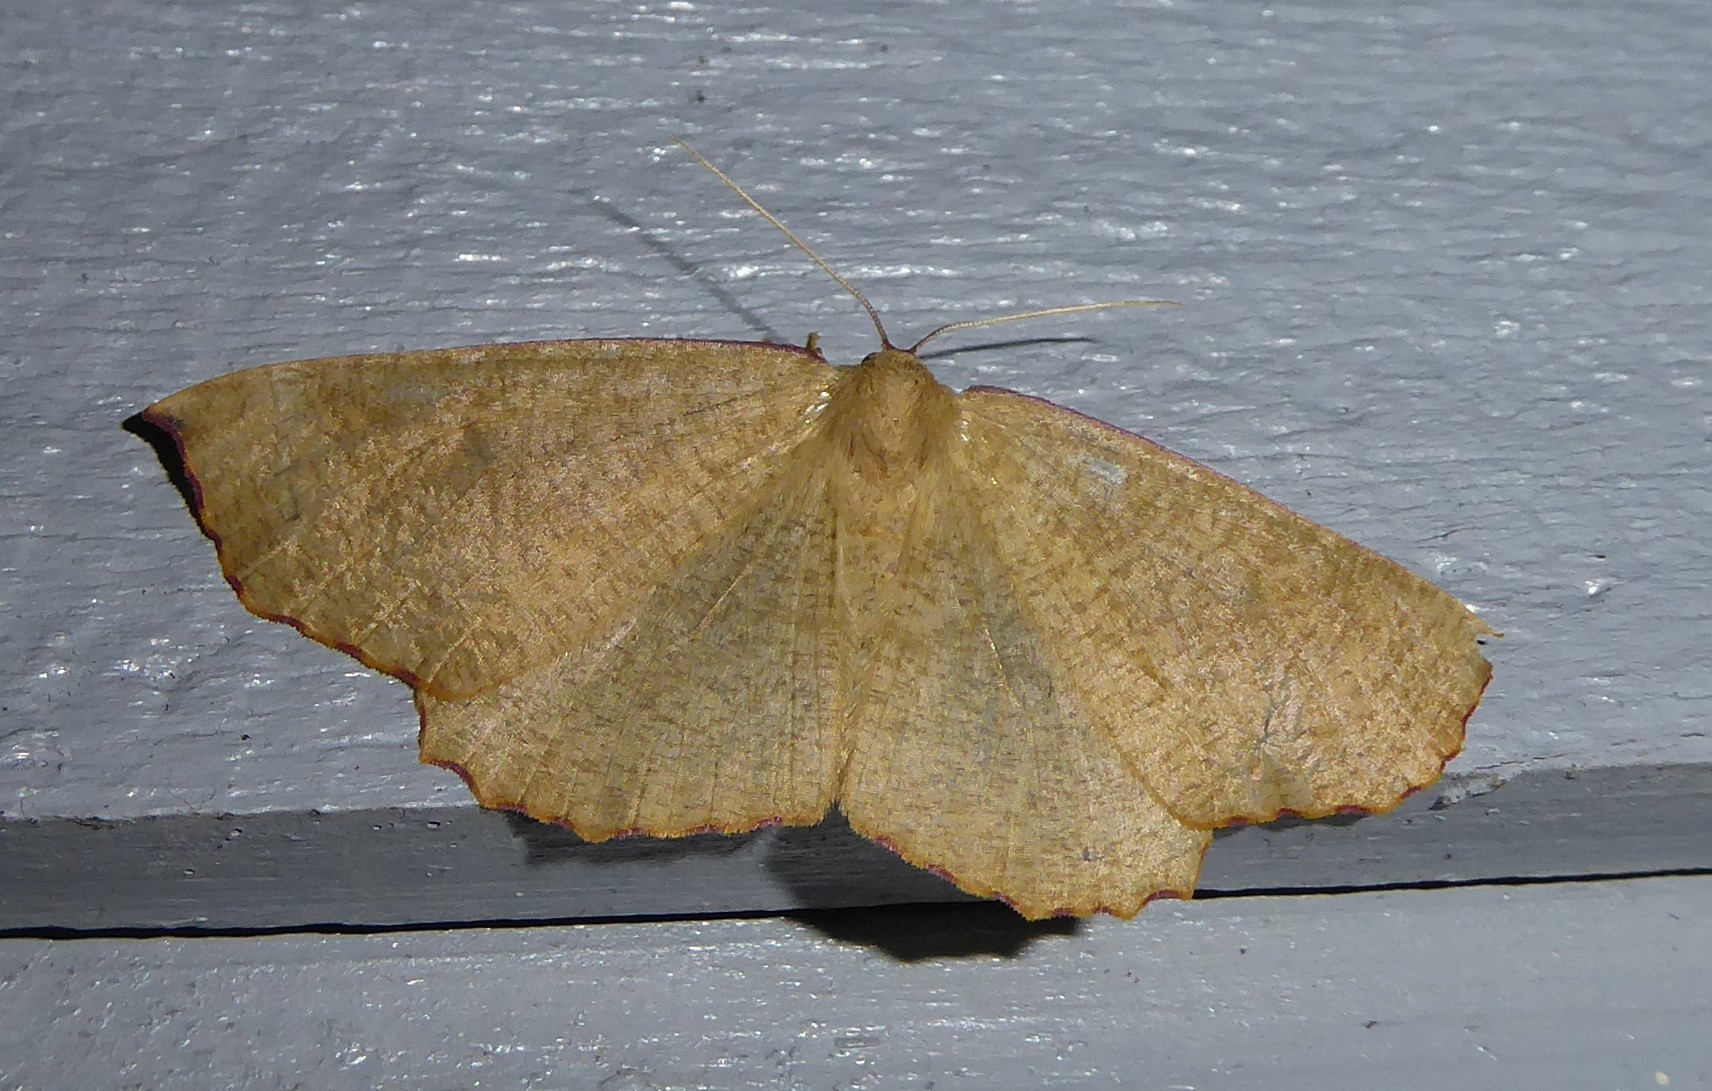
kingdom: Animalia
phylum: Arthropoda
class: Insecta
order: Lepidoptera
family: Geometridae
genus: Xyridacma
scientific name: Xyridacma alectoraria
